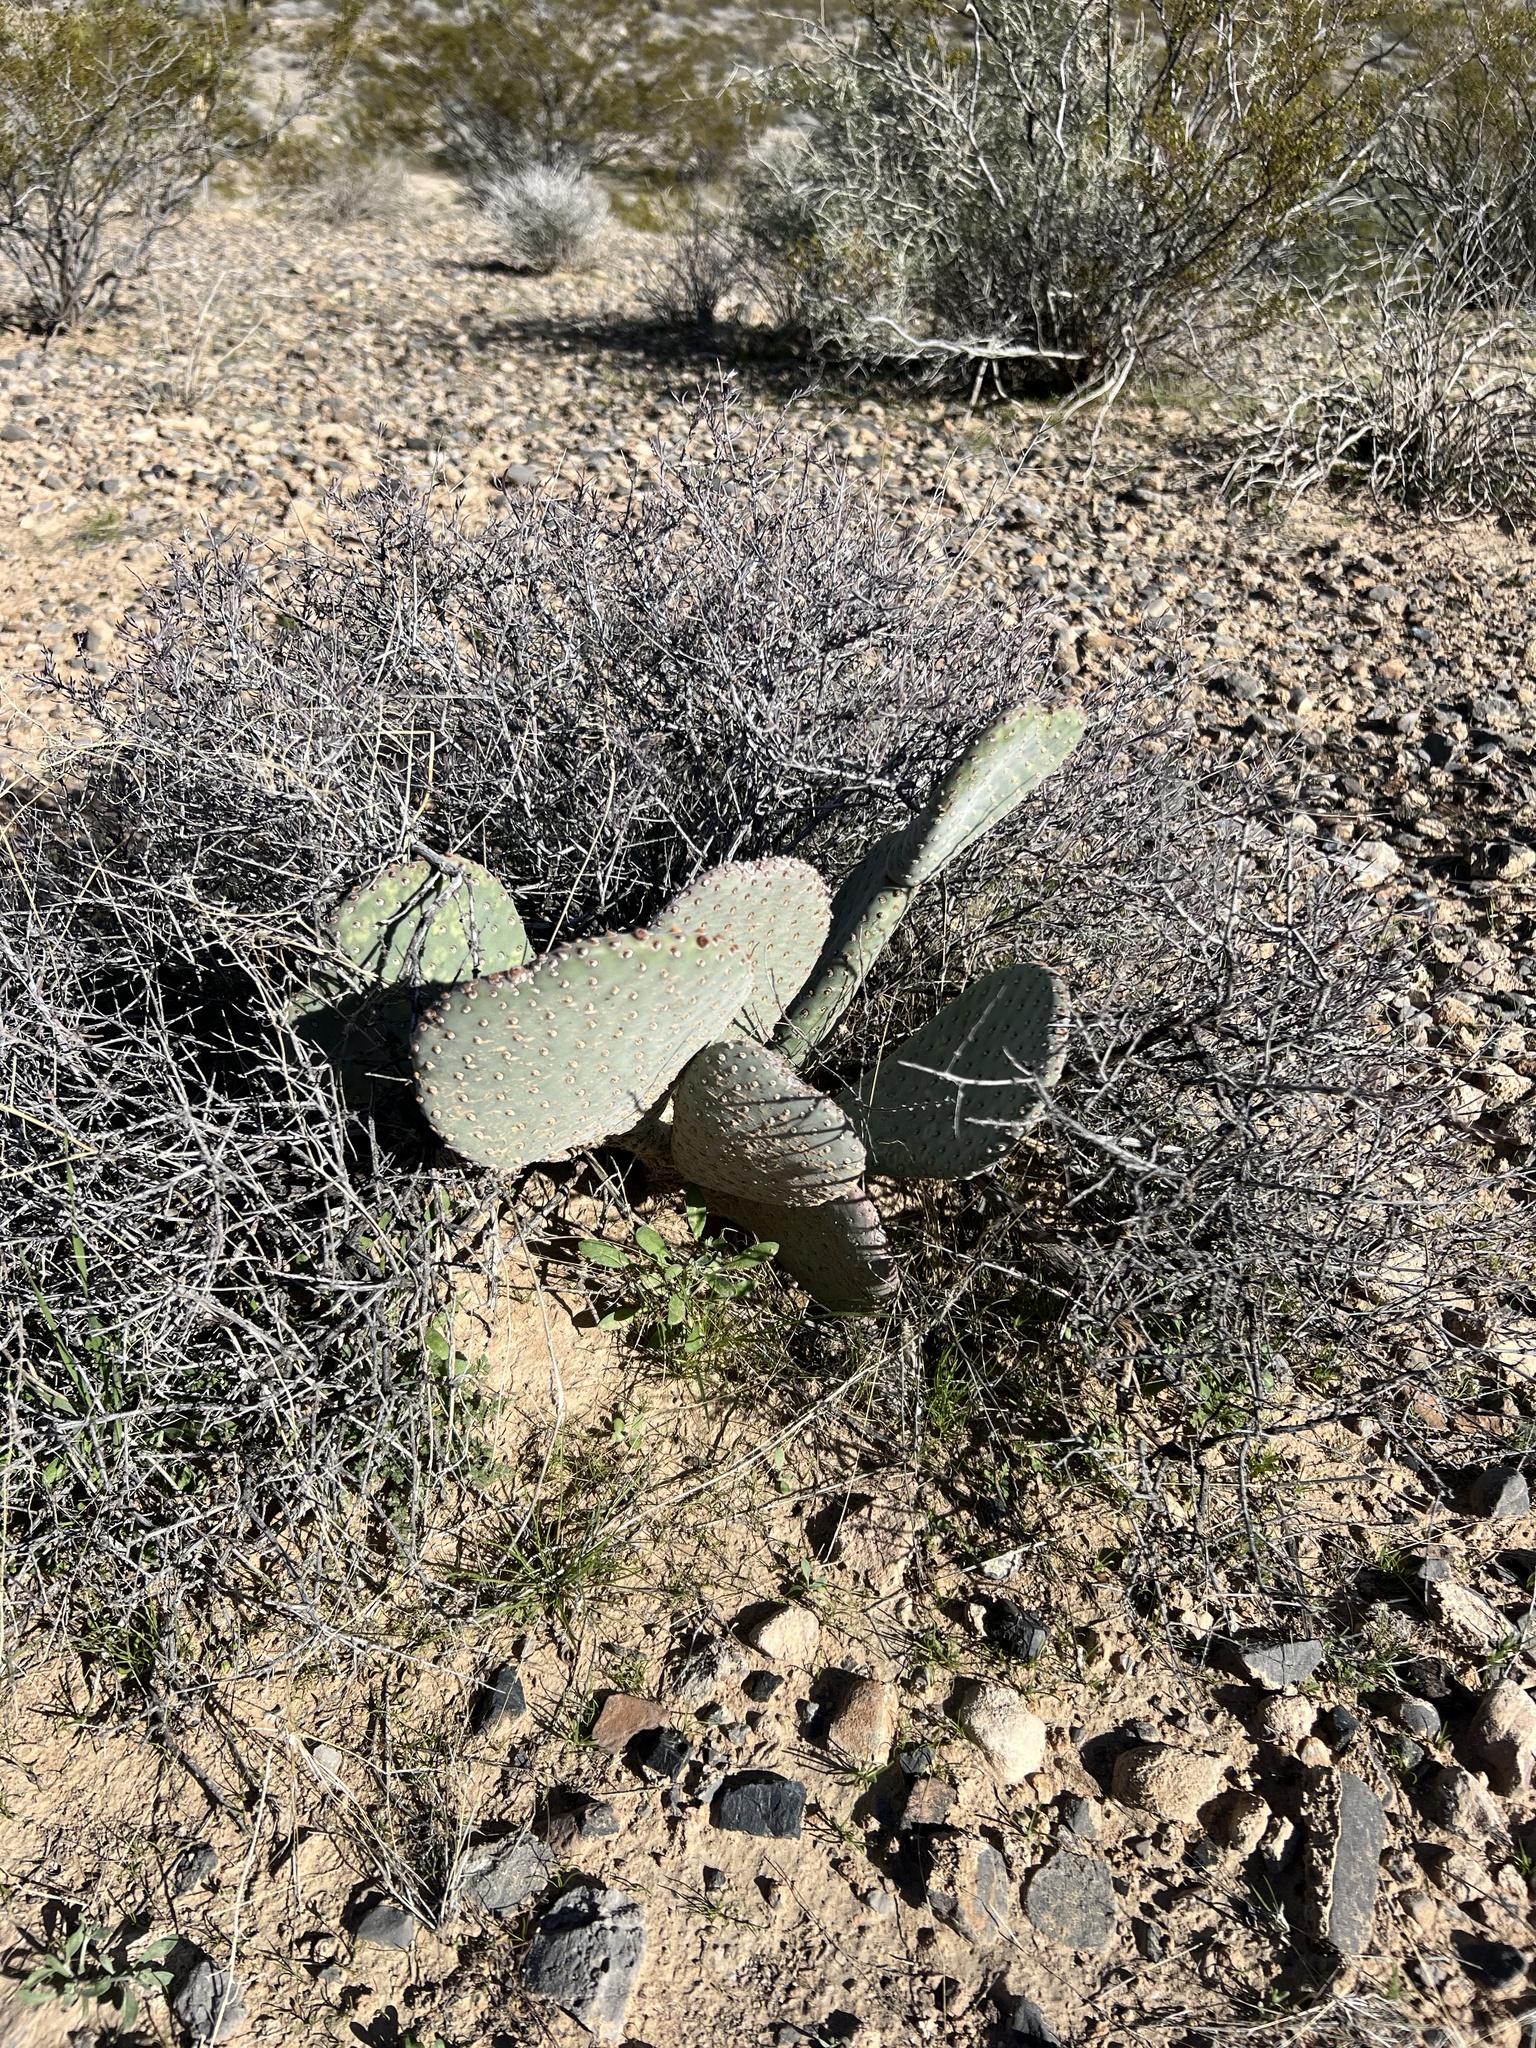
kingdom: Plantae
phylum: Tracheophyta
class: Magnoliopsida
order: Caryophyllales
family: Cactaceae
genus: Opuntia
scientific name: Opuntia basilaris
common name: Beavertail prickly-pear
